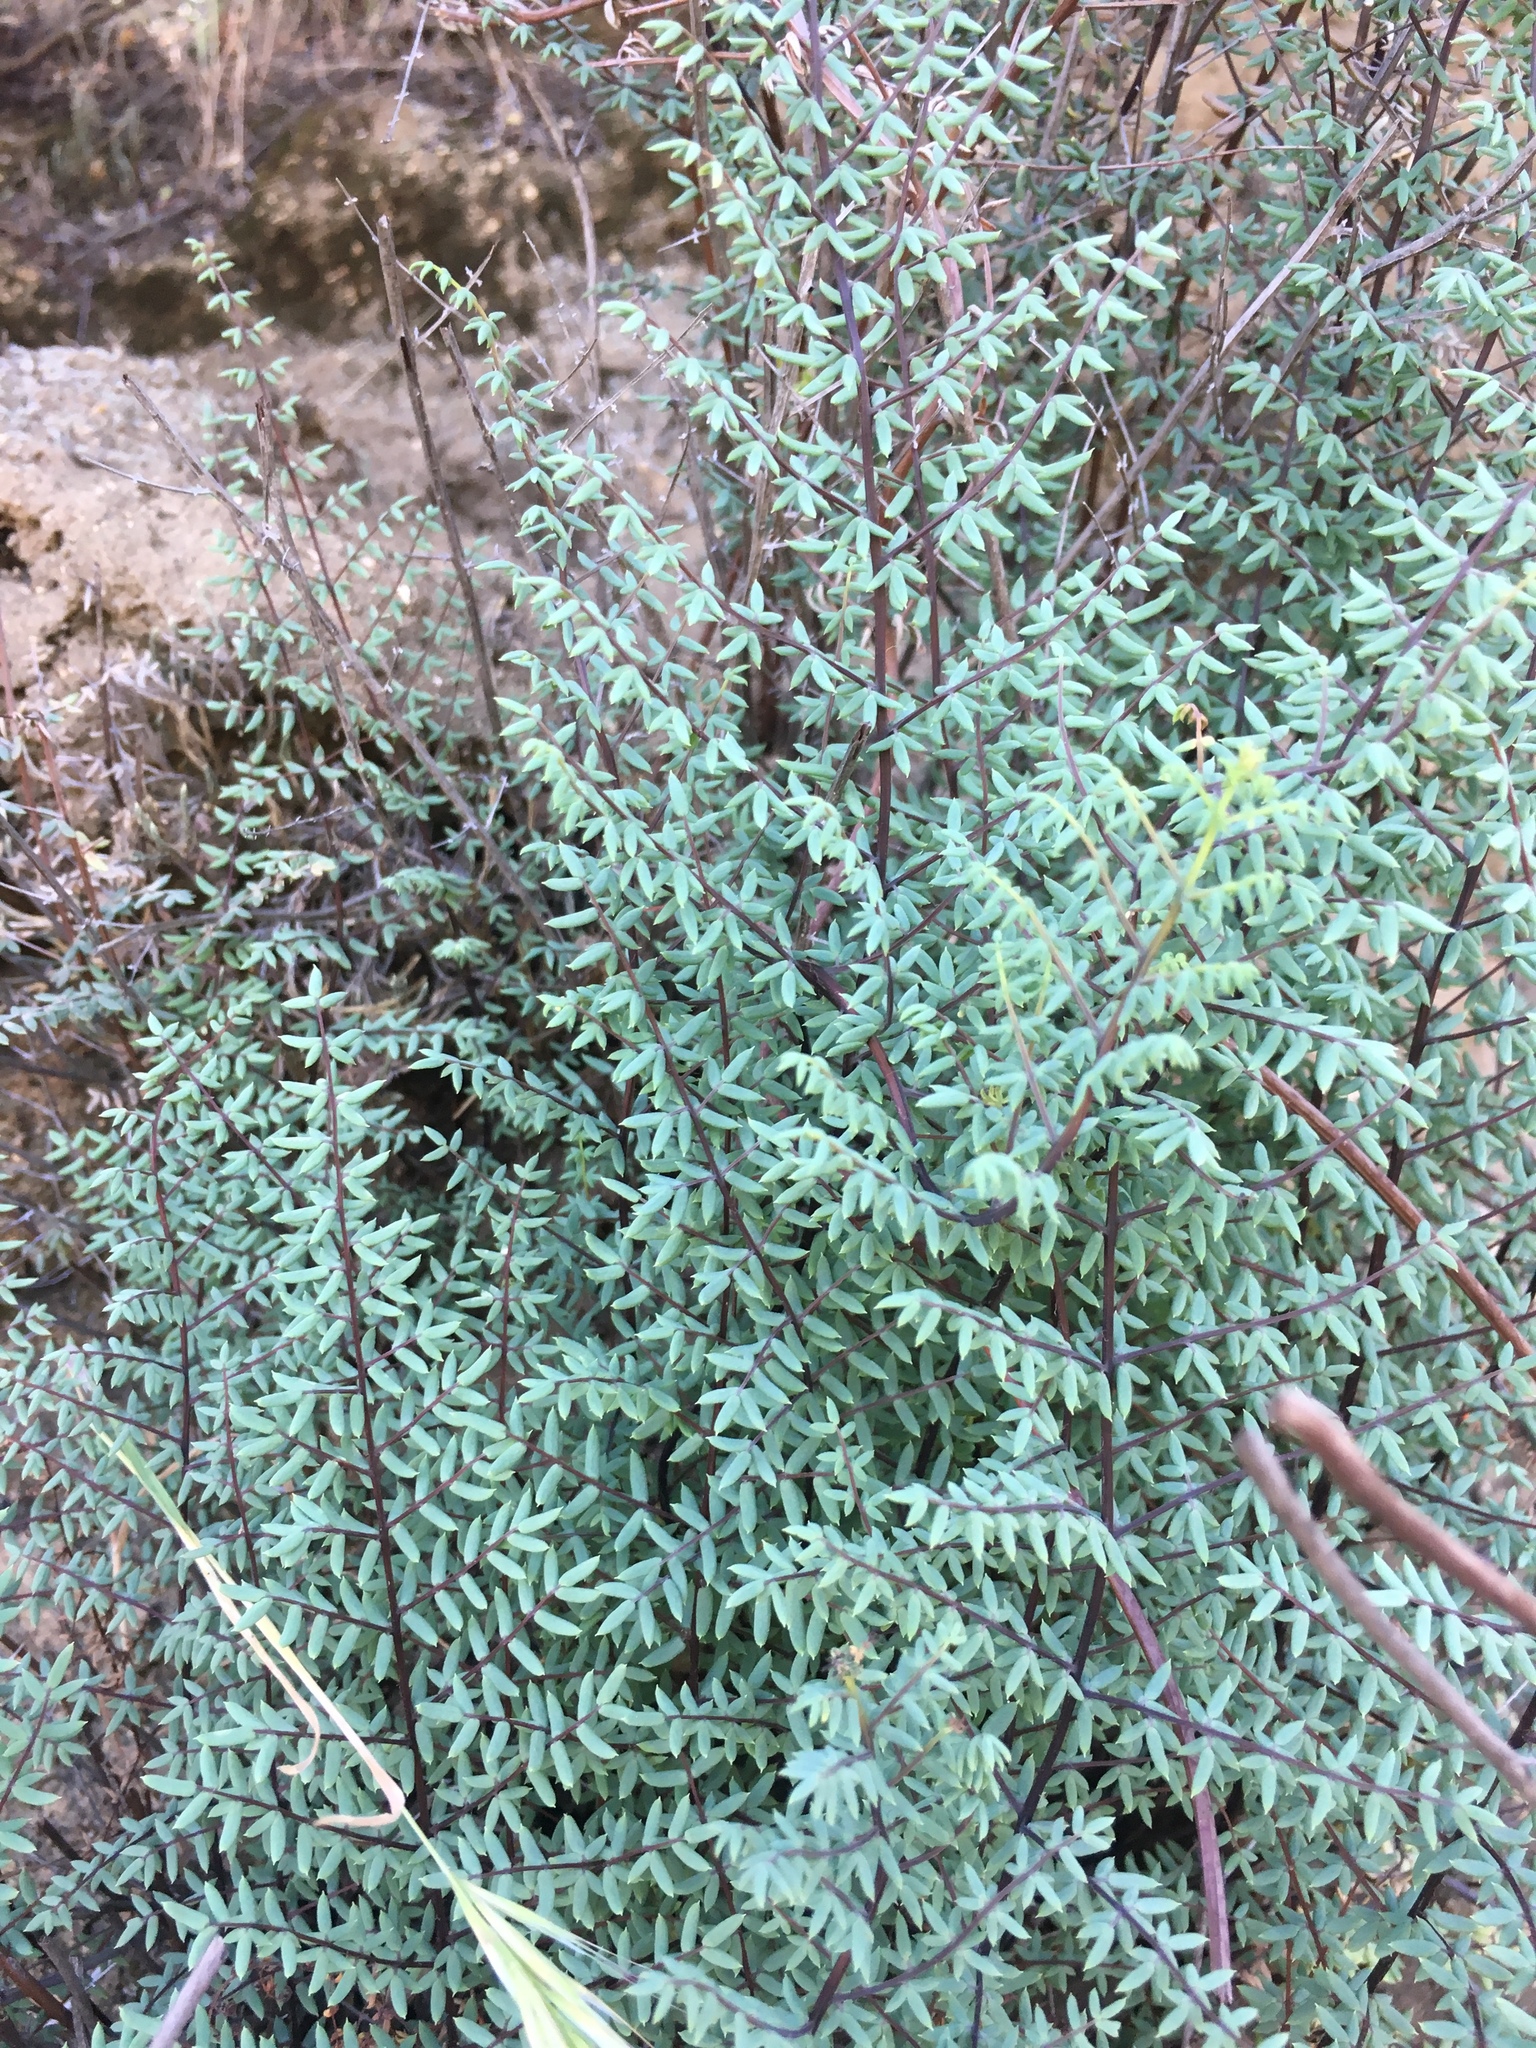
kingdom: Plantae
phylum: Tracheophyta
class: Polypodiopsida
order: Polypodiales
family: Pteridaceae
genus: Pellaea
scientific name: Pellaea mucronata
